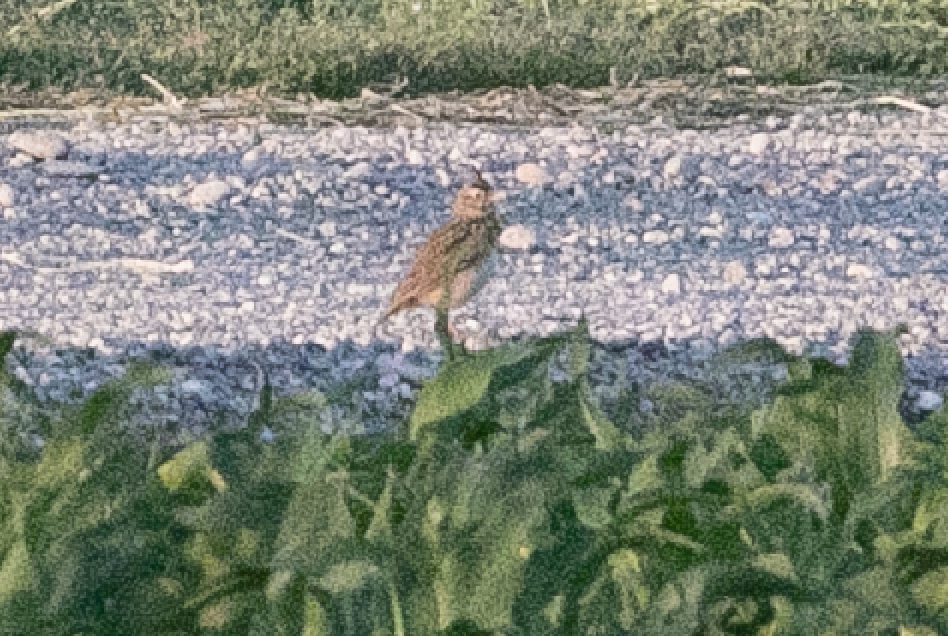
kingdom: Animalia
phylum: Chordata
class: Aves
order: Passeriformes
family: Alaudidae
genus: Galerida
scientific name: Galerida cristata
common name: Crested lark
